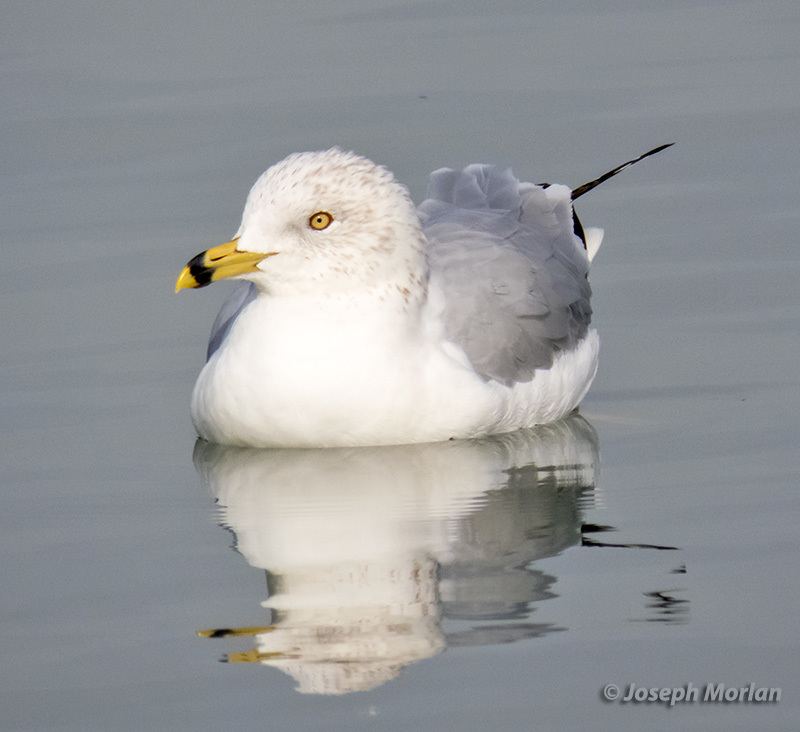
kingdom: Animalia
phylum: Chordata
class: Aves
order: Charadriiformes
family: Laridae
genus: Larus
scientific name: Larus delawarensis
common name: Ring-billed gull
